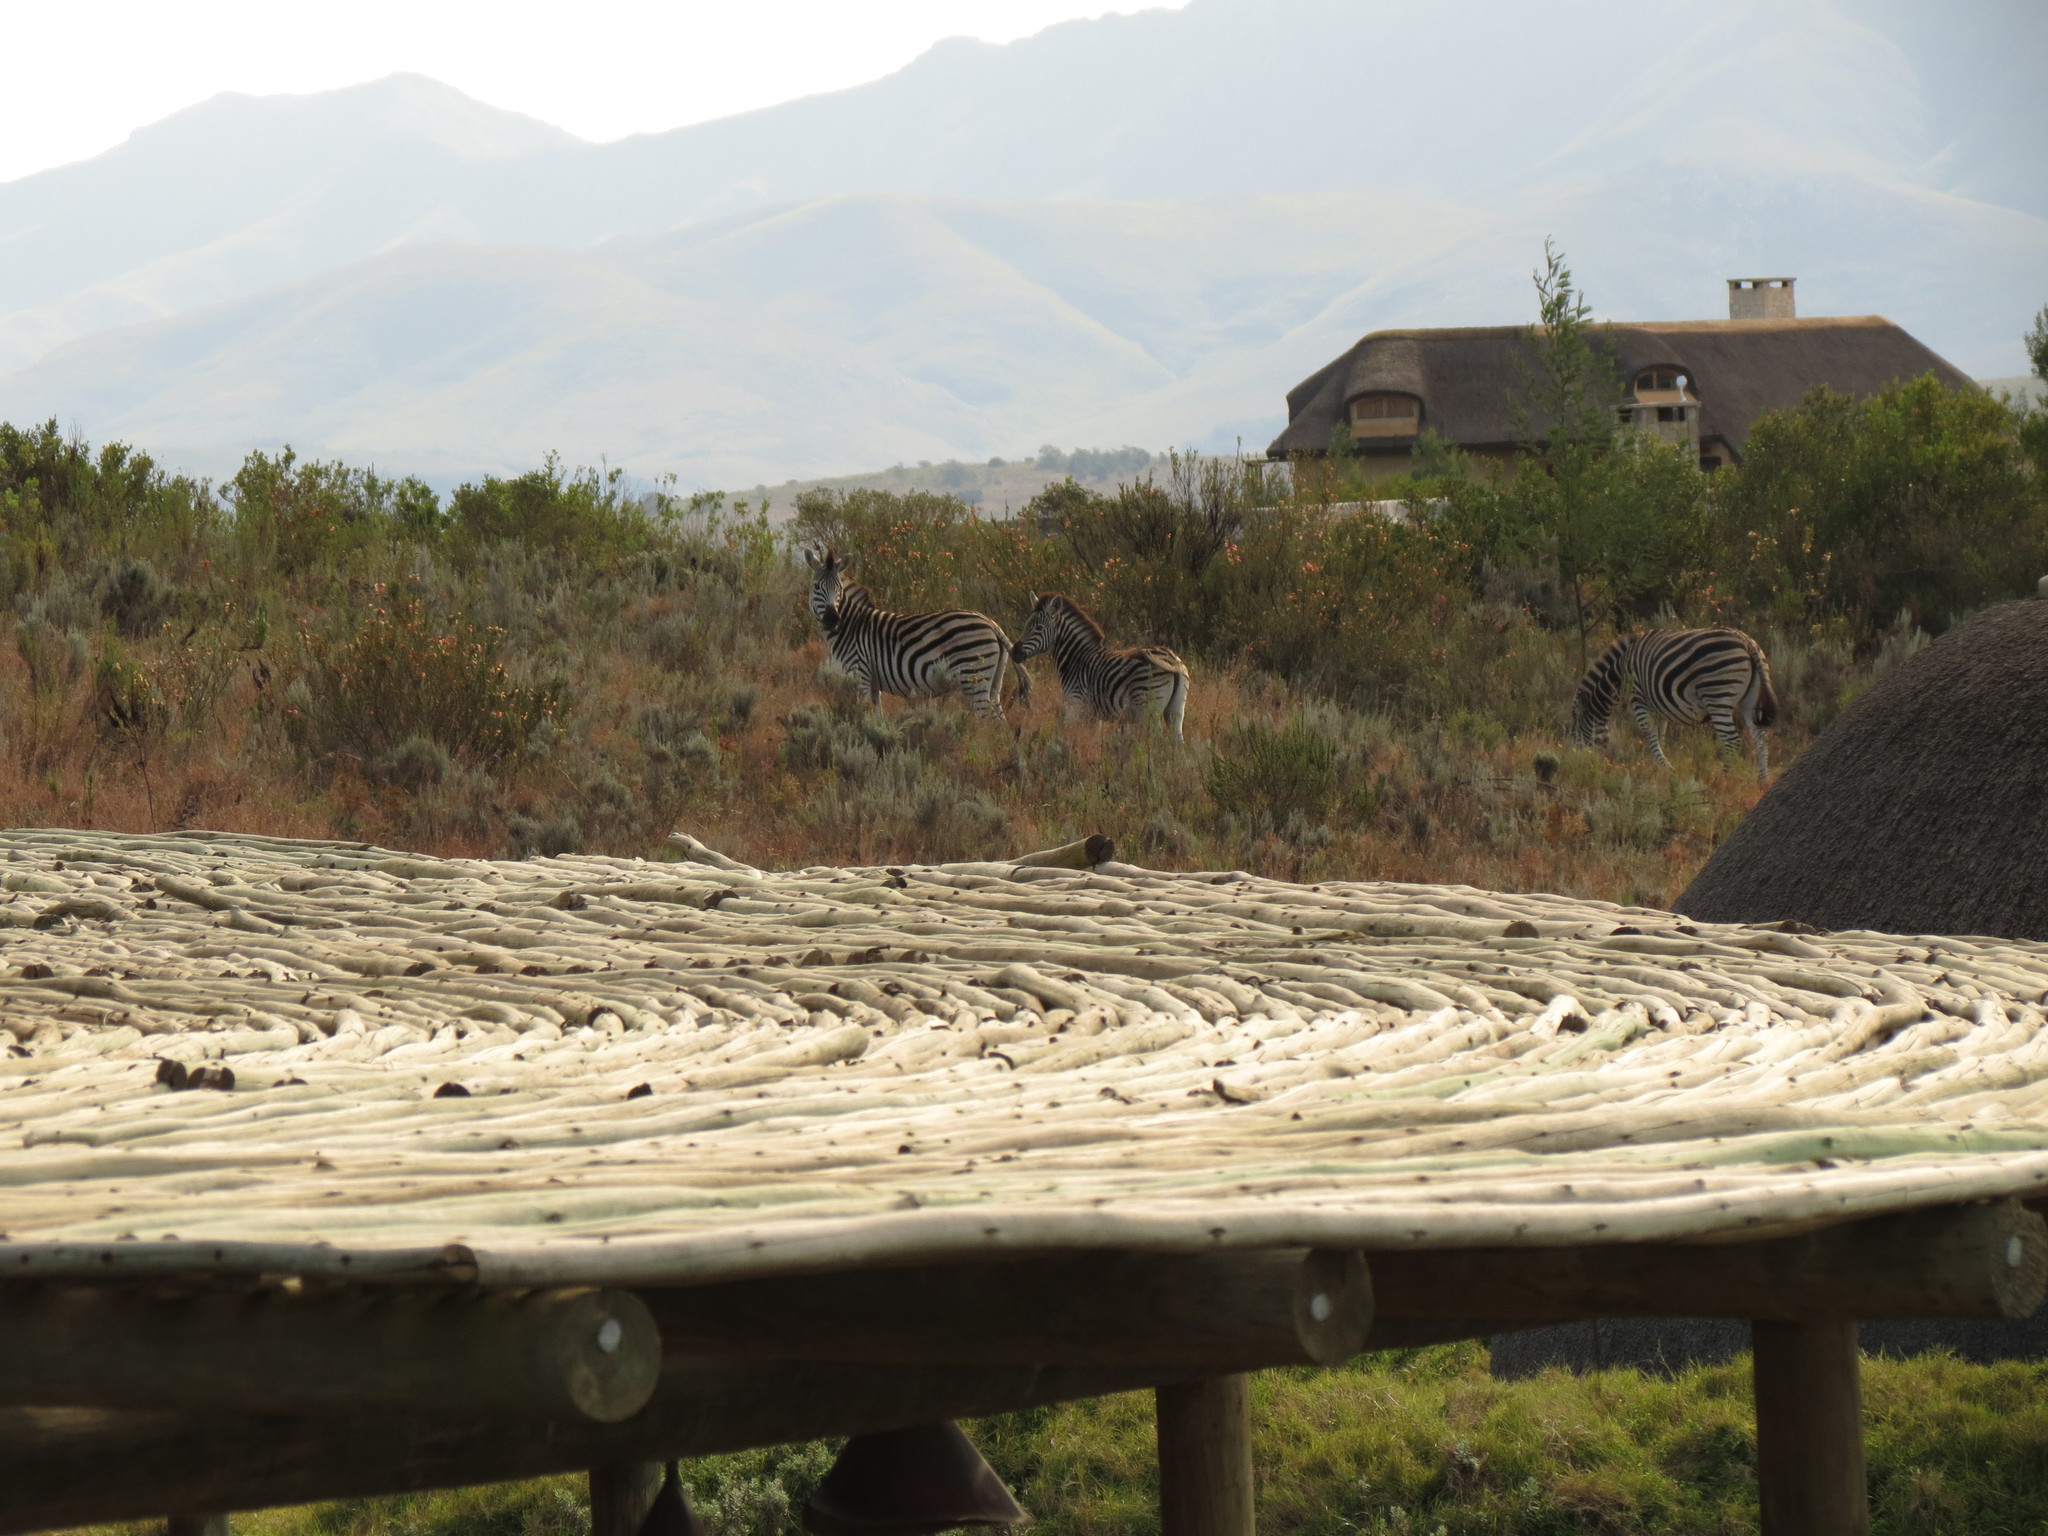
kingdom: Animalia
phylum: Chordata
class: Mammalia
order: Perissodactyla
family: Equidae
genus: Equus
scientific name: Equus quagga
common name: Plains zebra
